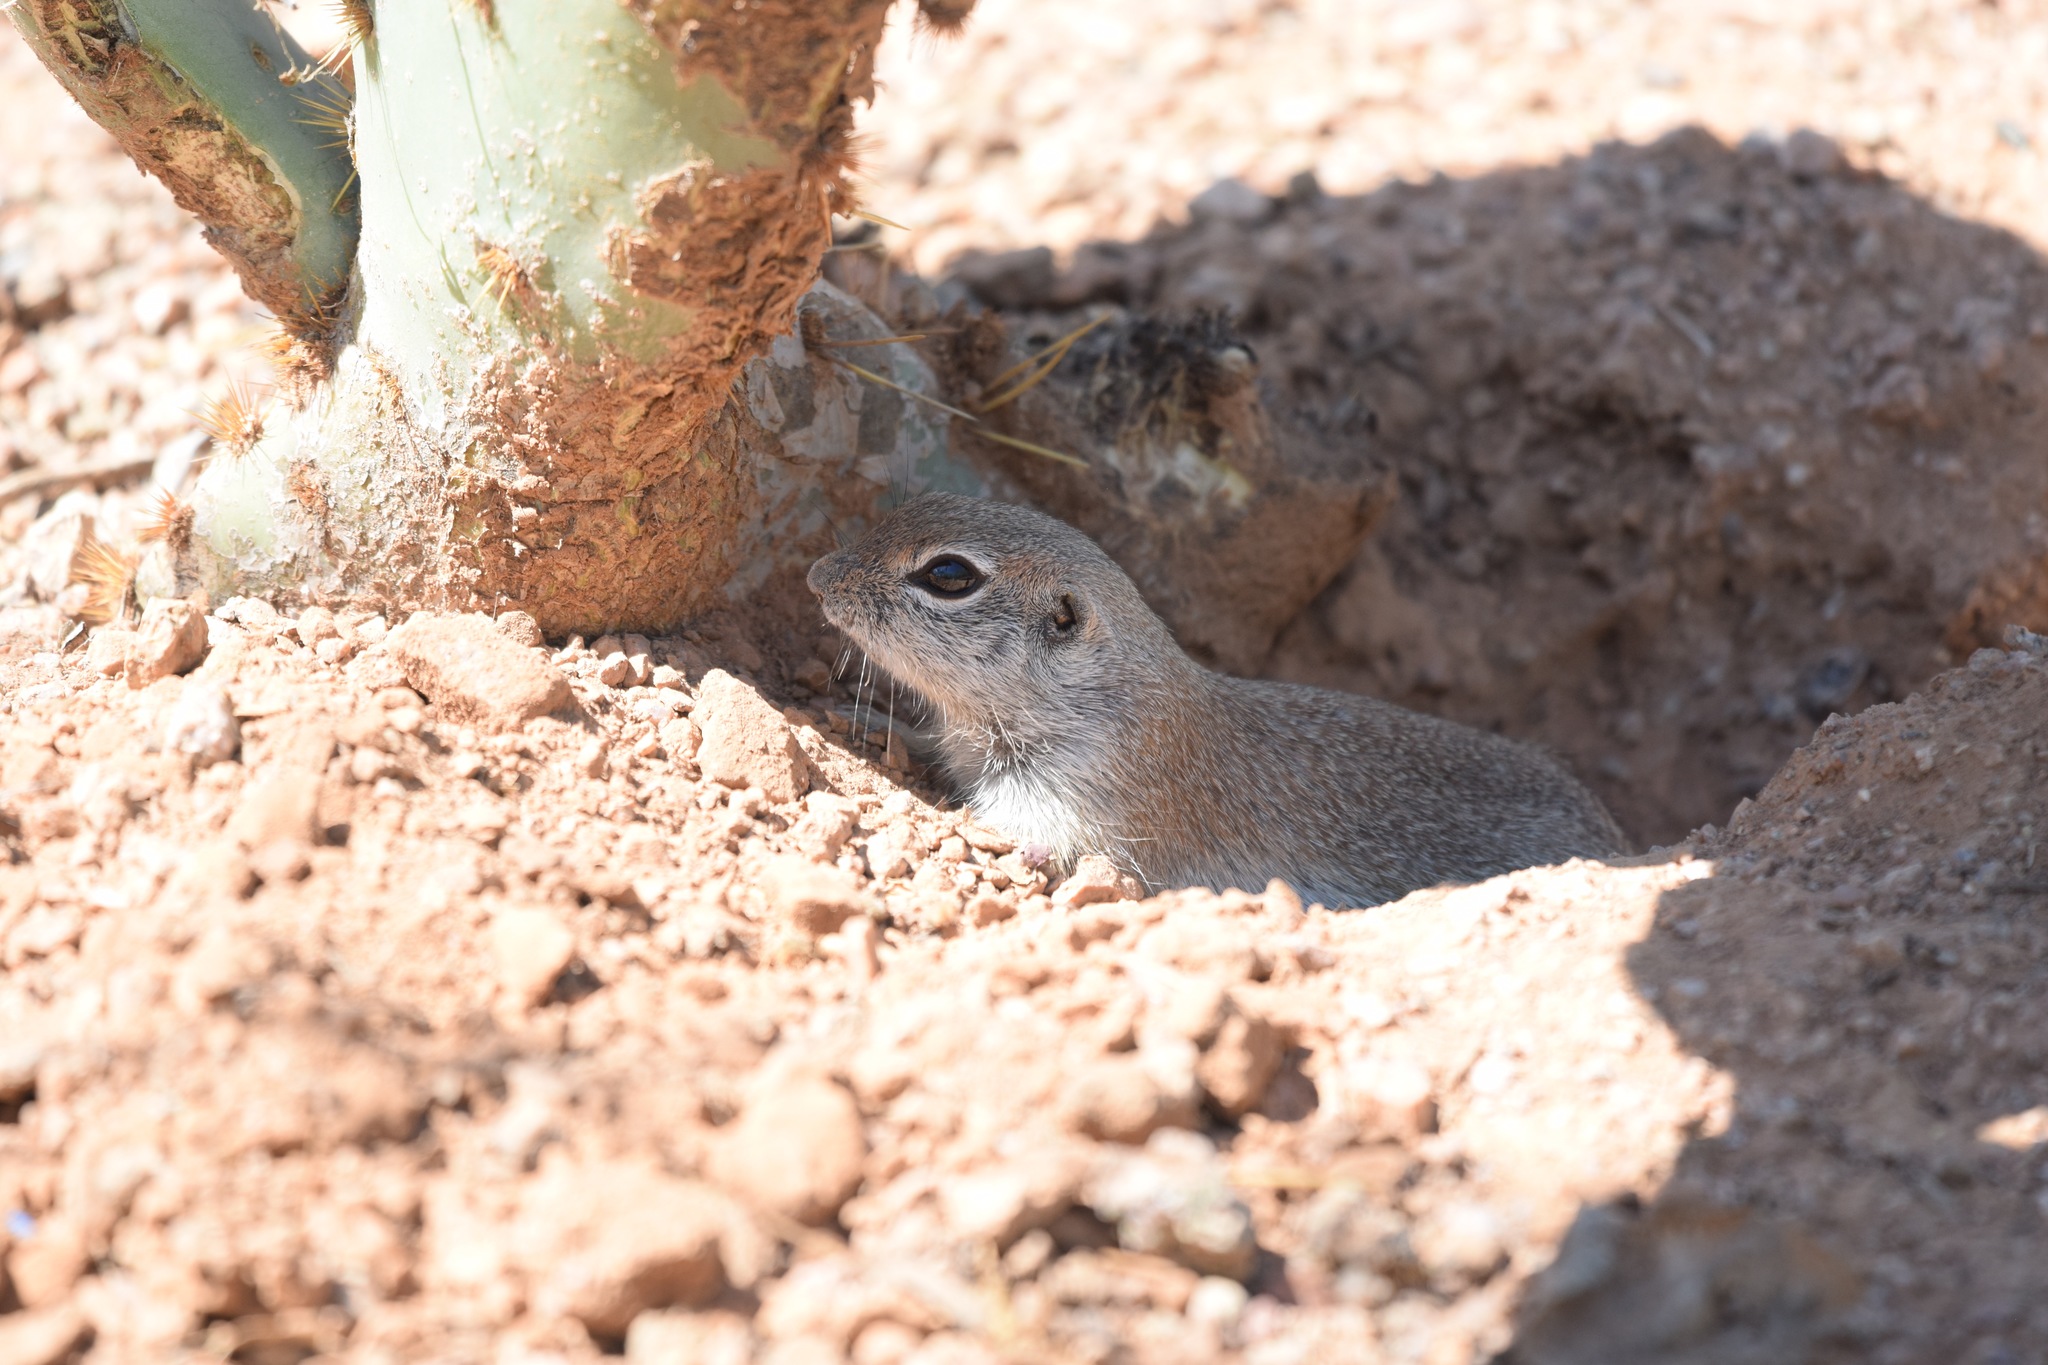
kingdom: Animalia
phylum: Chordata
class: Mammalia
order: Rodentia
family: Sciuridae
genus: Xerospermophilus
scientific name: Xerospermophilus tereticaudus
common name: Round-tailed ground squirrel
